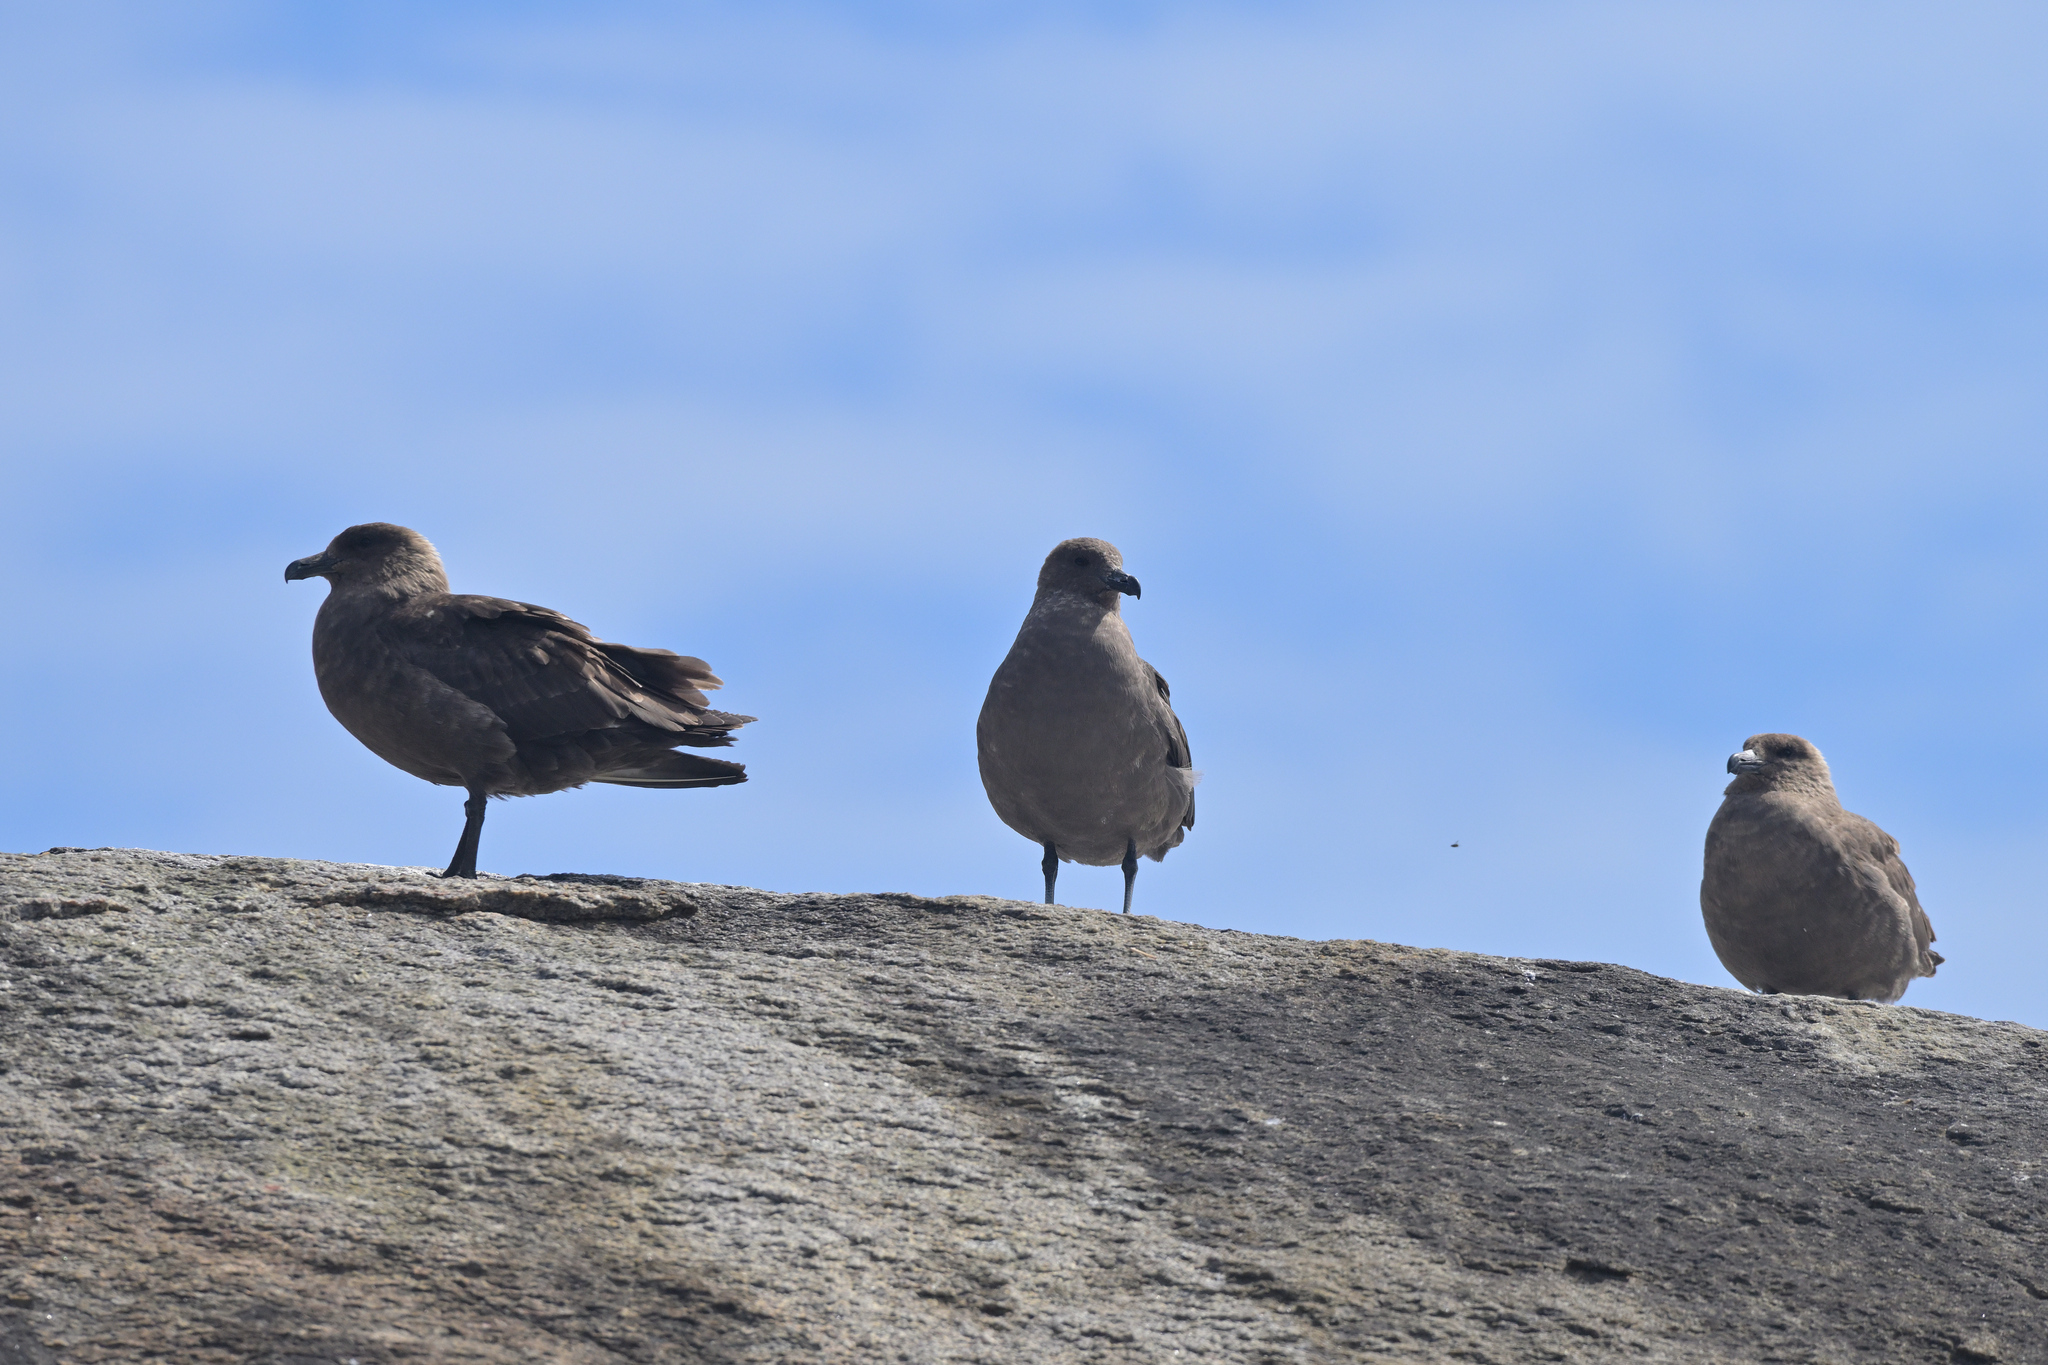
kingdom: Animalia
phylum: Chordata
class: Aves
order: Charadriiformes
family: Stercorariidae
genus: Stercorarius
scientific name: Stercorarius antarcticus
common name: Brown skua
